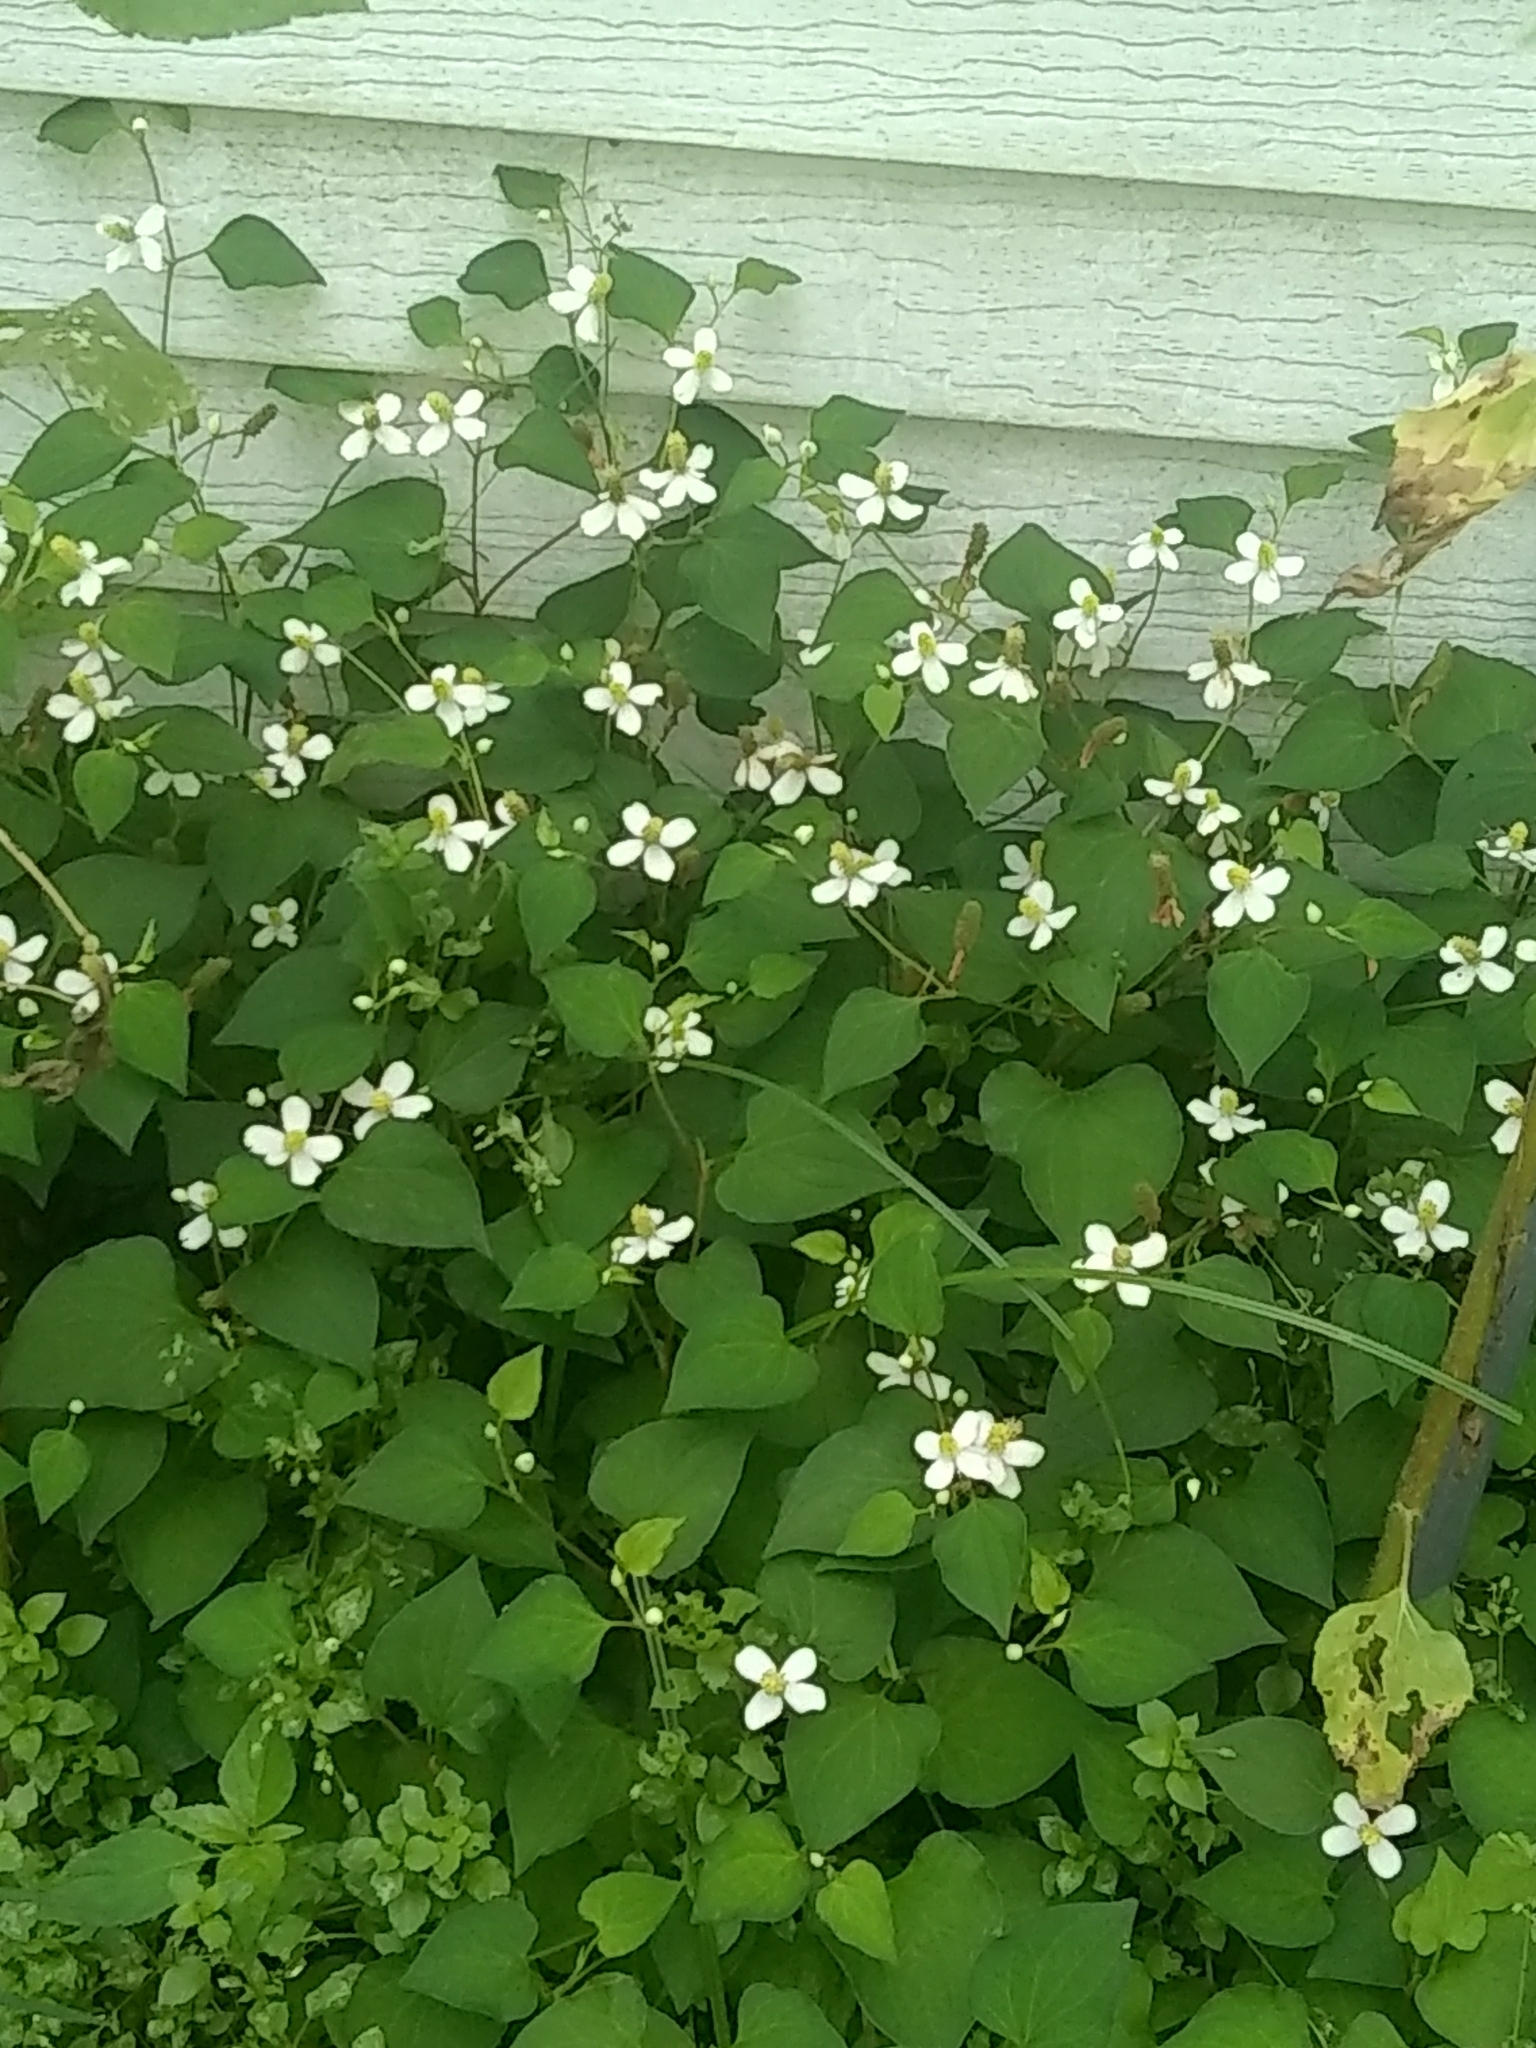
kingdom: Plantae
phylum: Tracheophyta
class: Magnoliopsida
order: Piperales
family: Saururaceae
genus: Houttuynia
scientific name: Houttuynia cordata
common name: Chameleon
